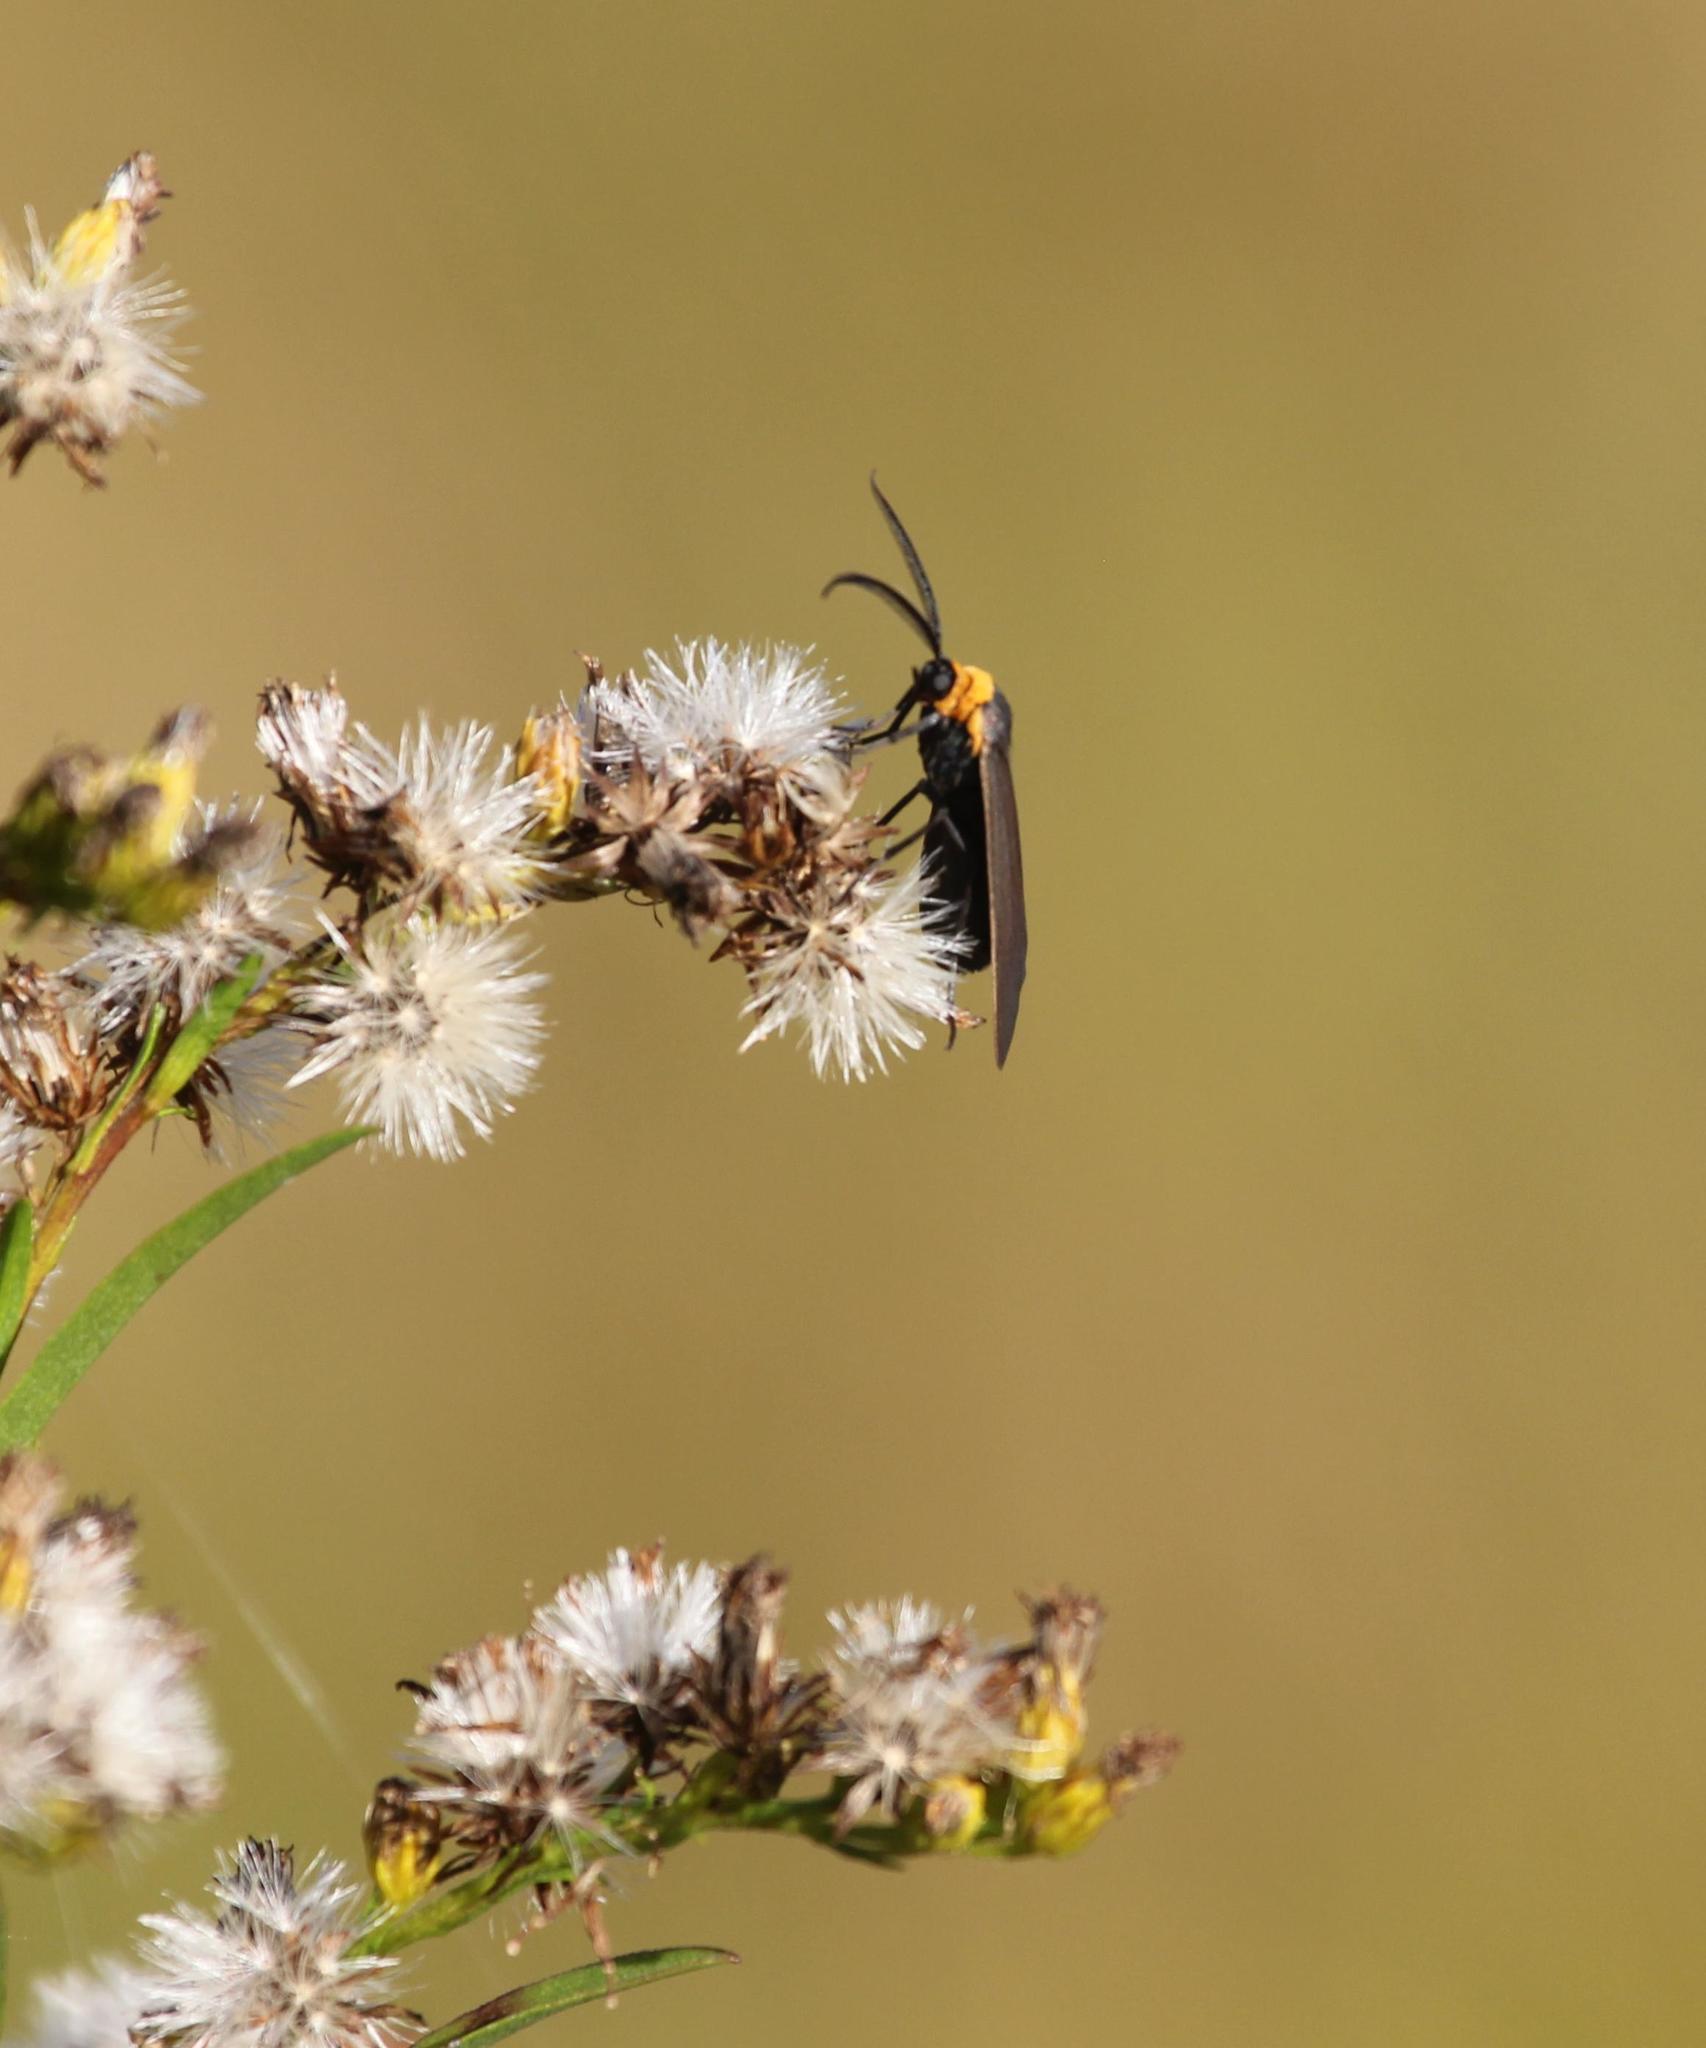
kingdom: Animalia
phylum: Arthropoda
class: Insecta
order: Lepidoptera
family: Erebidae
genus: Cisseps
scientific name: Cisseps fulvicollis
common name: Yellow-collared scape moth
